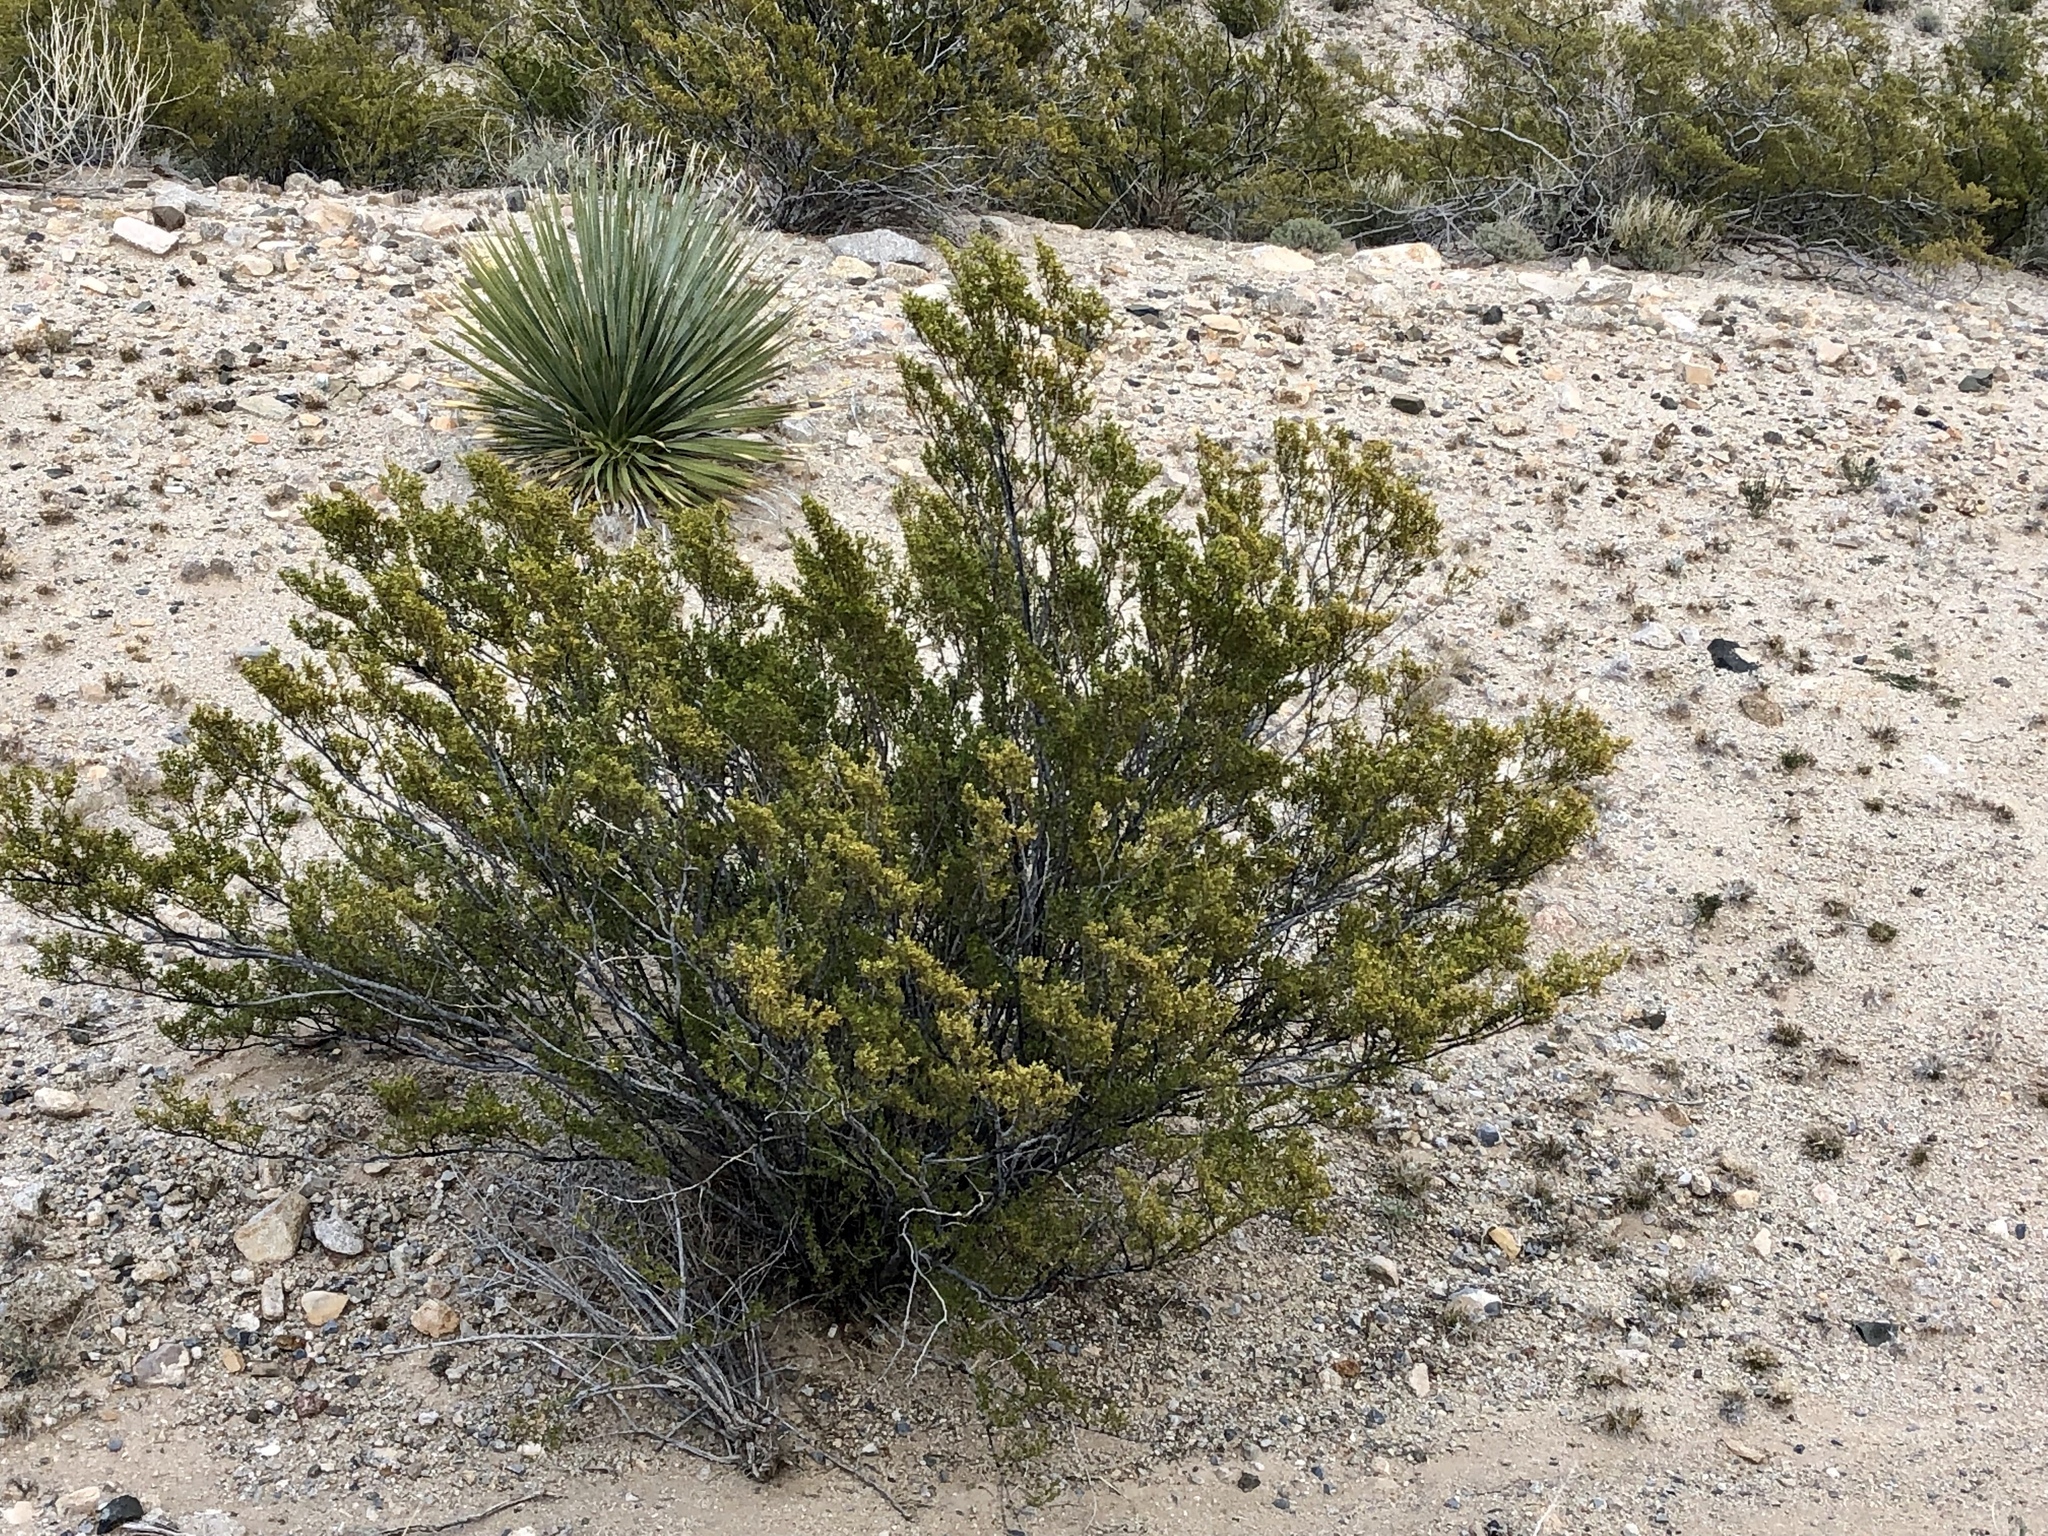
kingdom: Plantae
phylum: Tracheophyta
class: Magnoliopsida
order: Zygophyllales
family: Zygophyllaceae
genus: Larrea
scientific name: Larrea tridentata
